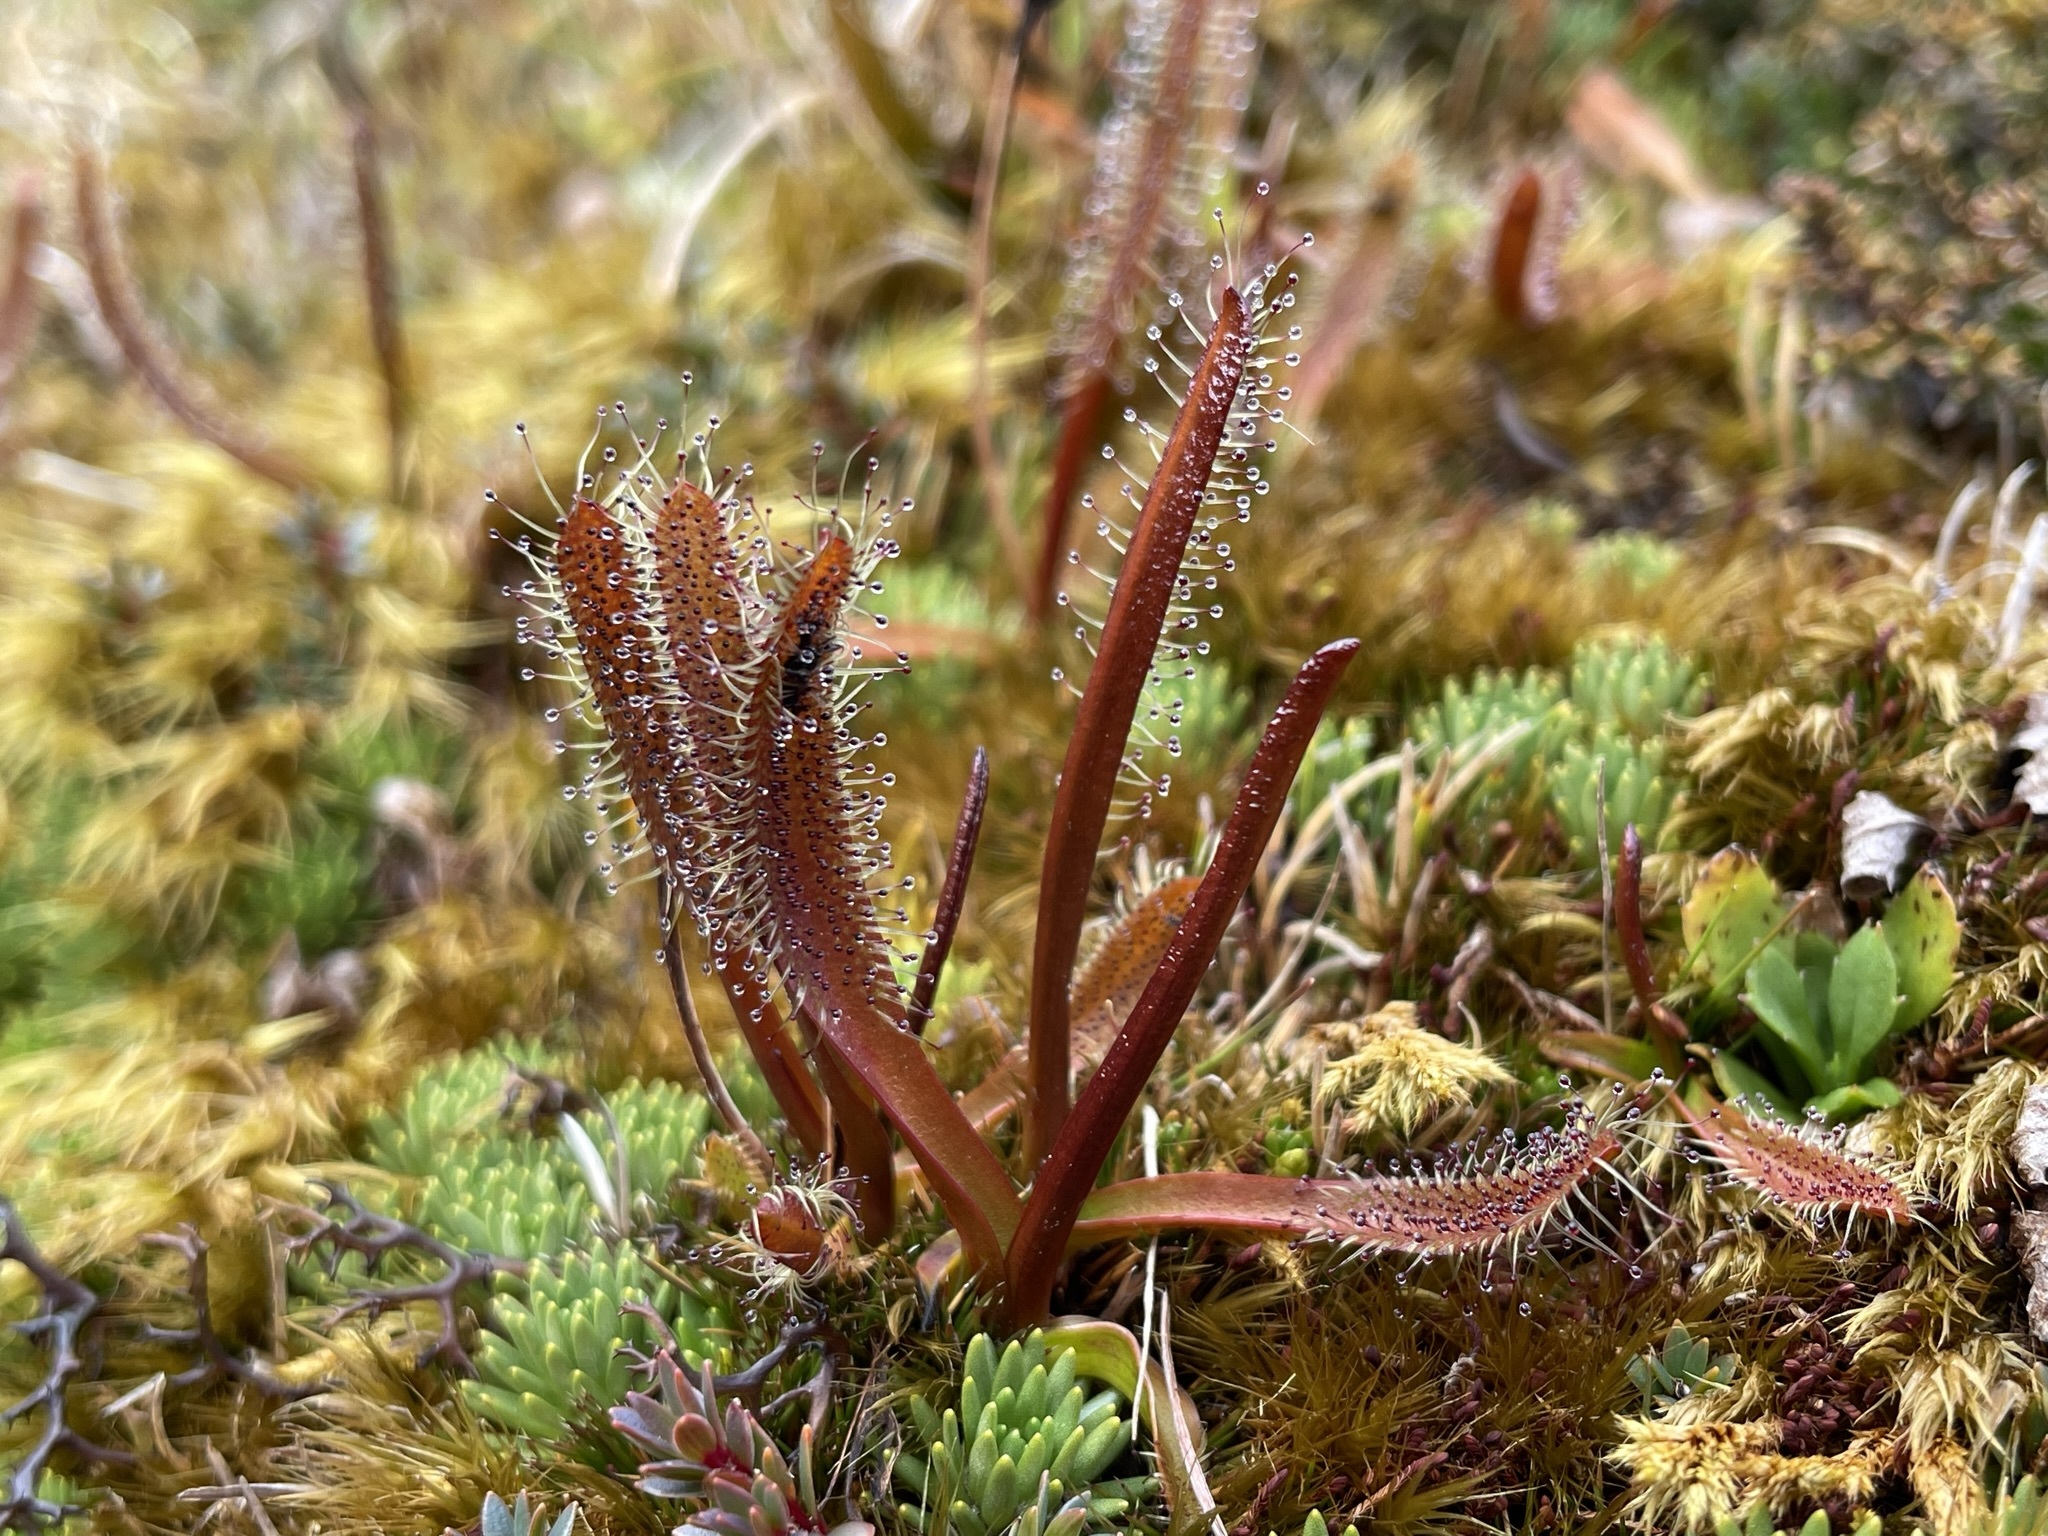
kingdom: Plantae
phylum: Tracheophyta
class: Magnoliopsida
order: Caryophyllales
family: Droseraceae
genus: Drosera
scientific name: Drosera arcturi
